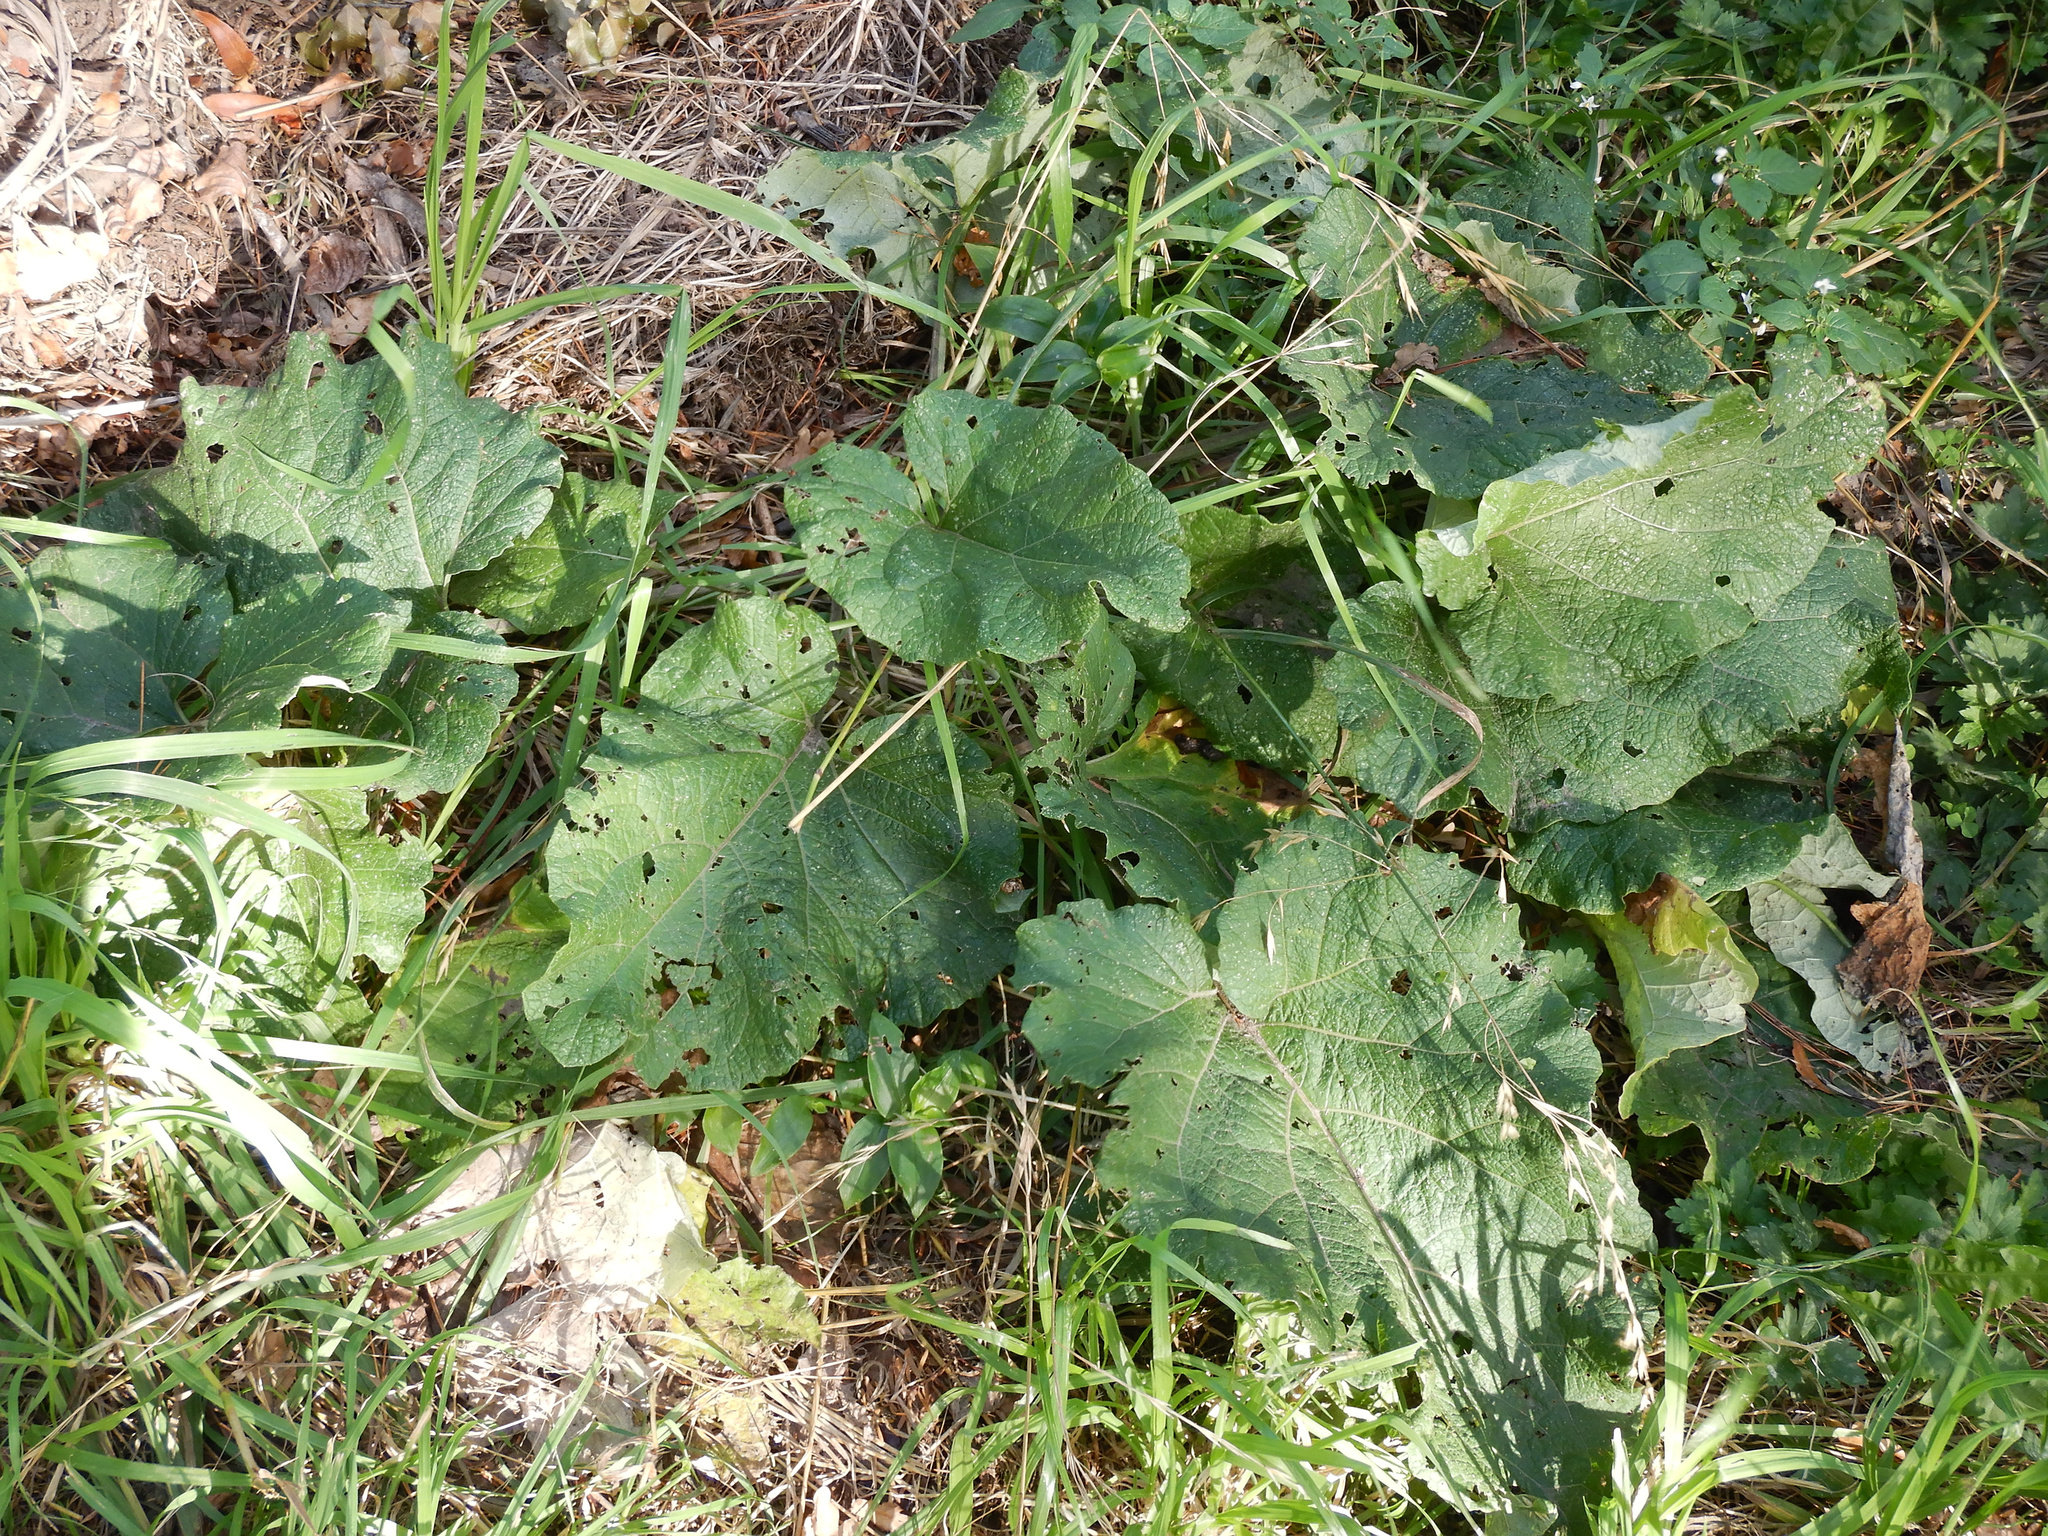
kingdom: Plantae
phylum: Tracheophyta
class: Magnoliopsida
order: Asterales
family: Asteraceae
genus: Arctium
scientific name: Arctium minus
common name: Lesser burdock
